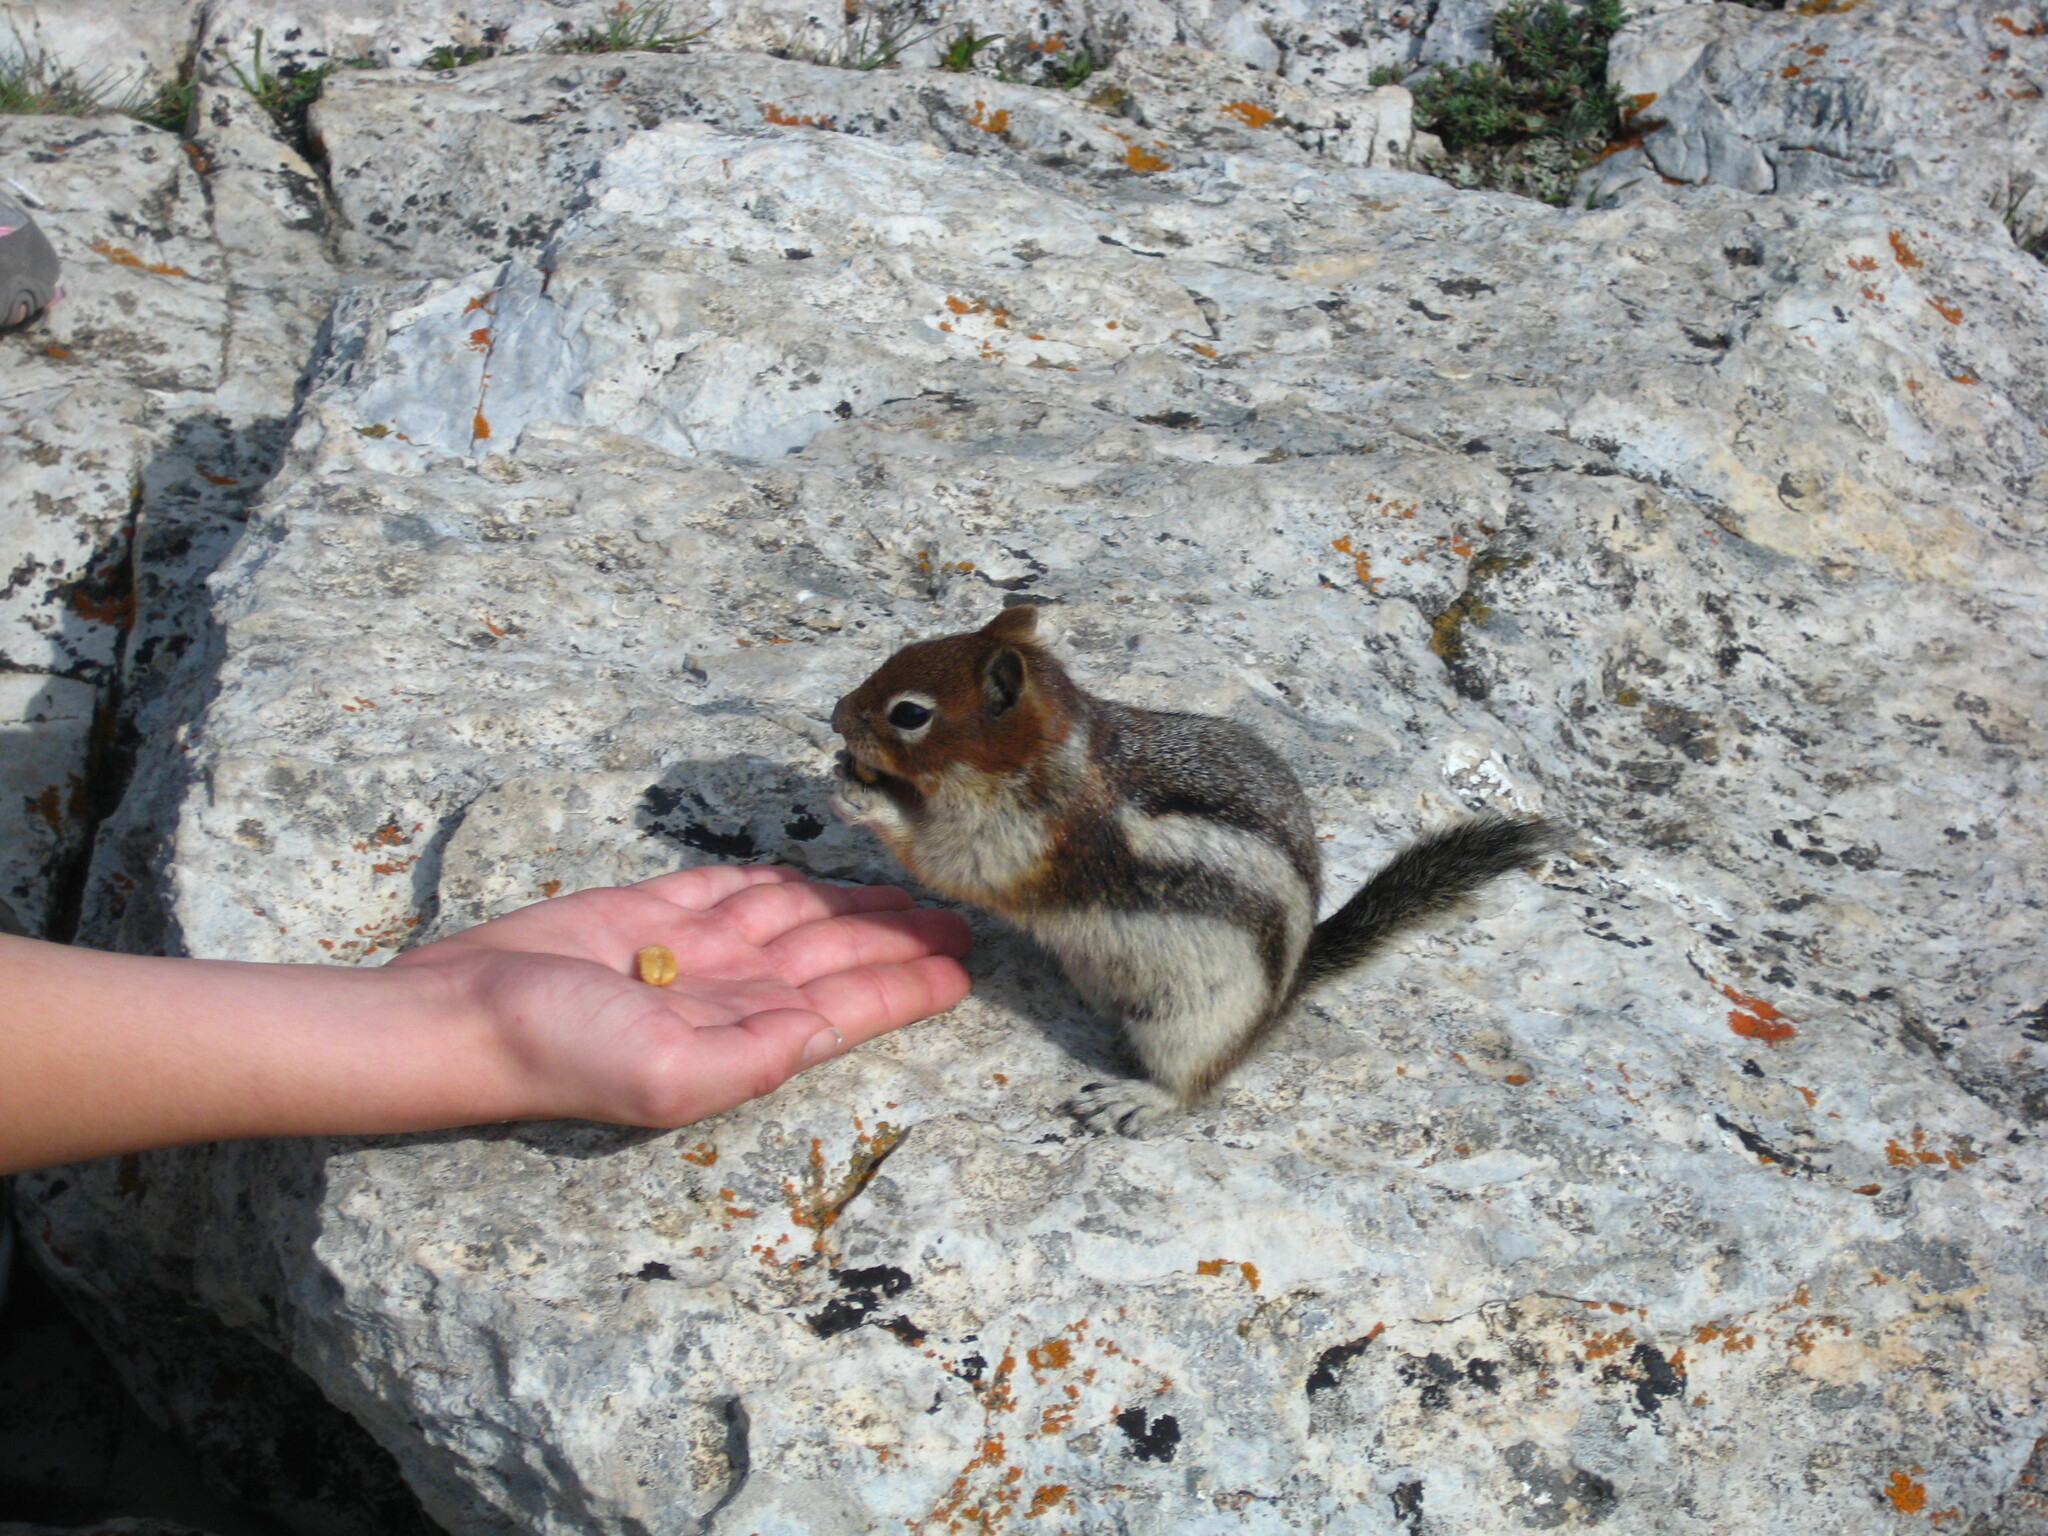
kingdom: Animalia
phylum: Chordata
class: Mammalia
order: Rodentia
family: Sciuridae
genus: Callospermophilus
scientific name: Callospermophilus lateralis
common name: Golden-mantled ground squirrel
